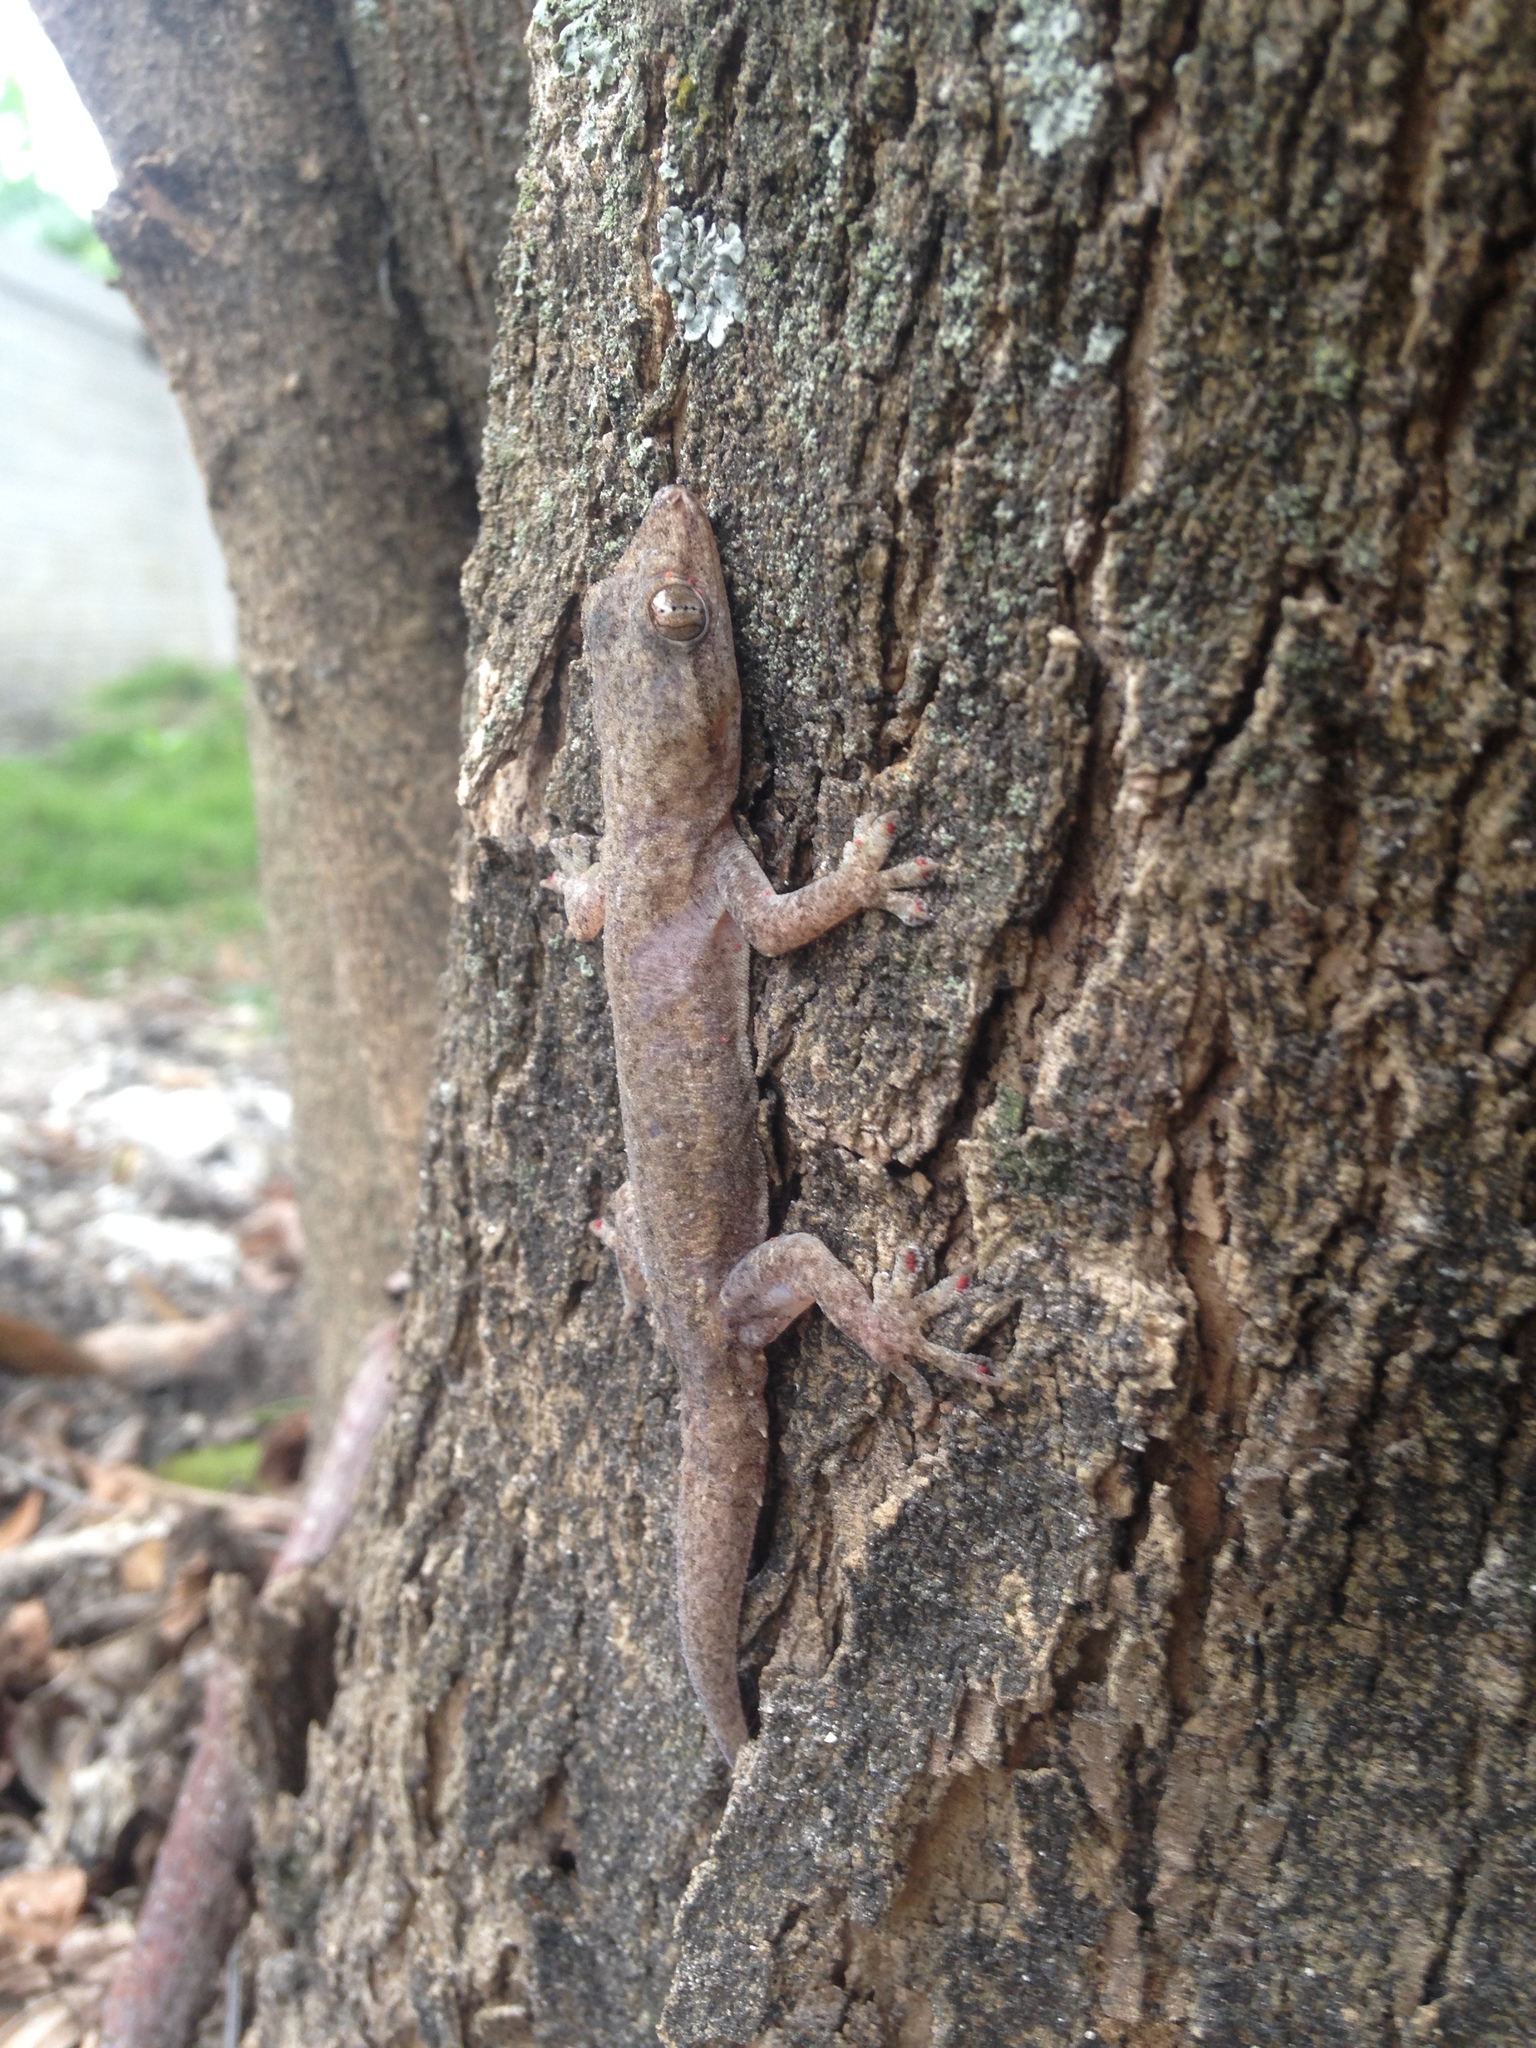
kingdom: Animalia
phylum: Chordata
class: Squamata
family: Gekkonidae
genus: Hemidactylus
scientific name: Hemidactylus frenatus
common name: Common house gecko
